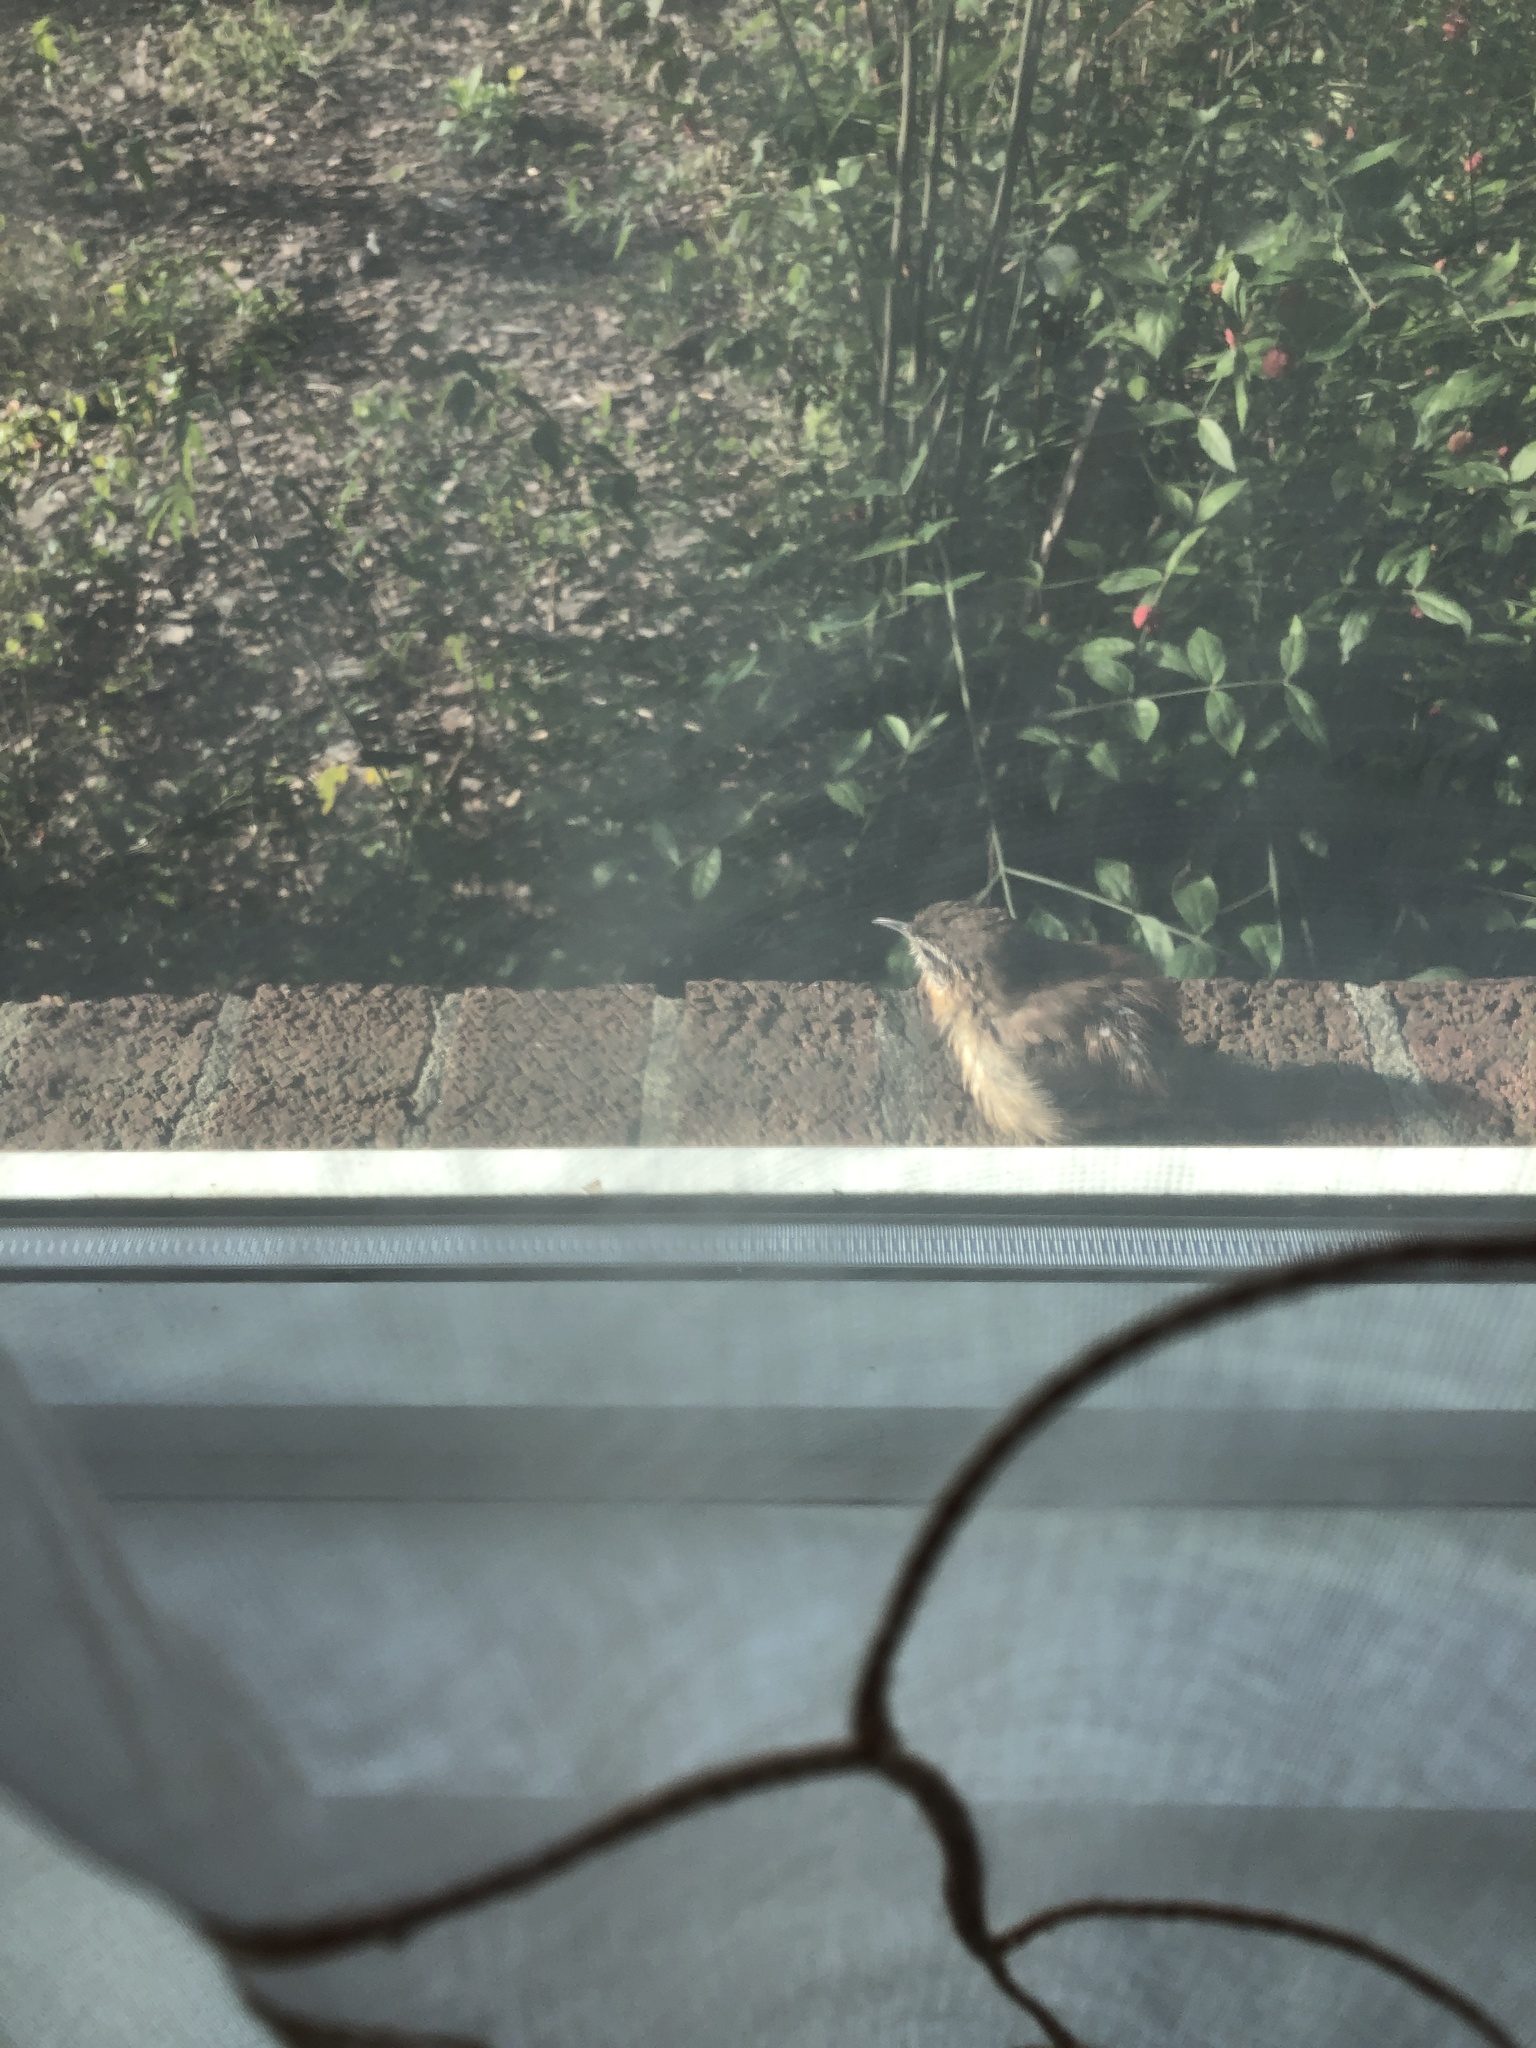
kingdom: Animalia
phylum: Chordata
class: Aves
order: Passeriformes
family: Troglodytidae
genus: Thryothorus
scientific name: Thryothorus ludovicianus
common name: Carolina wren
